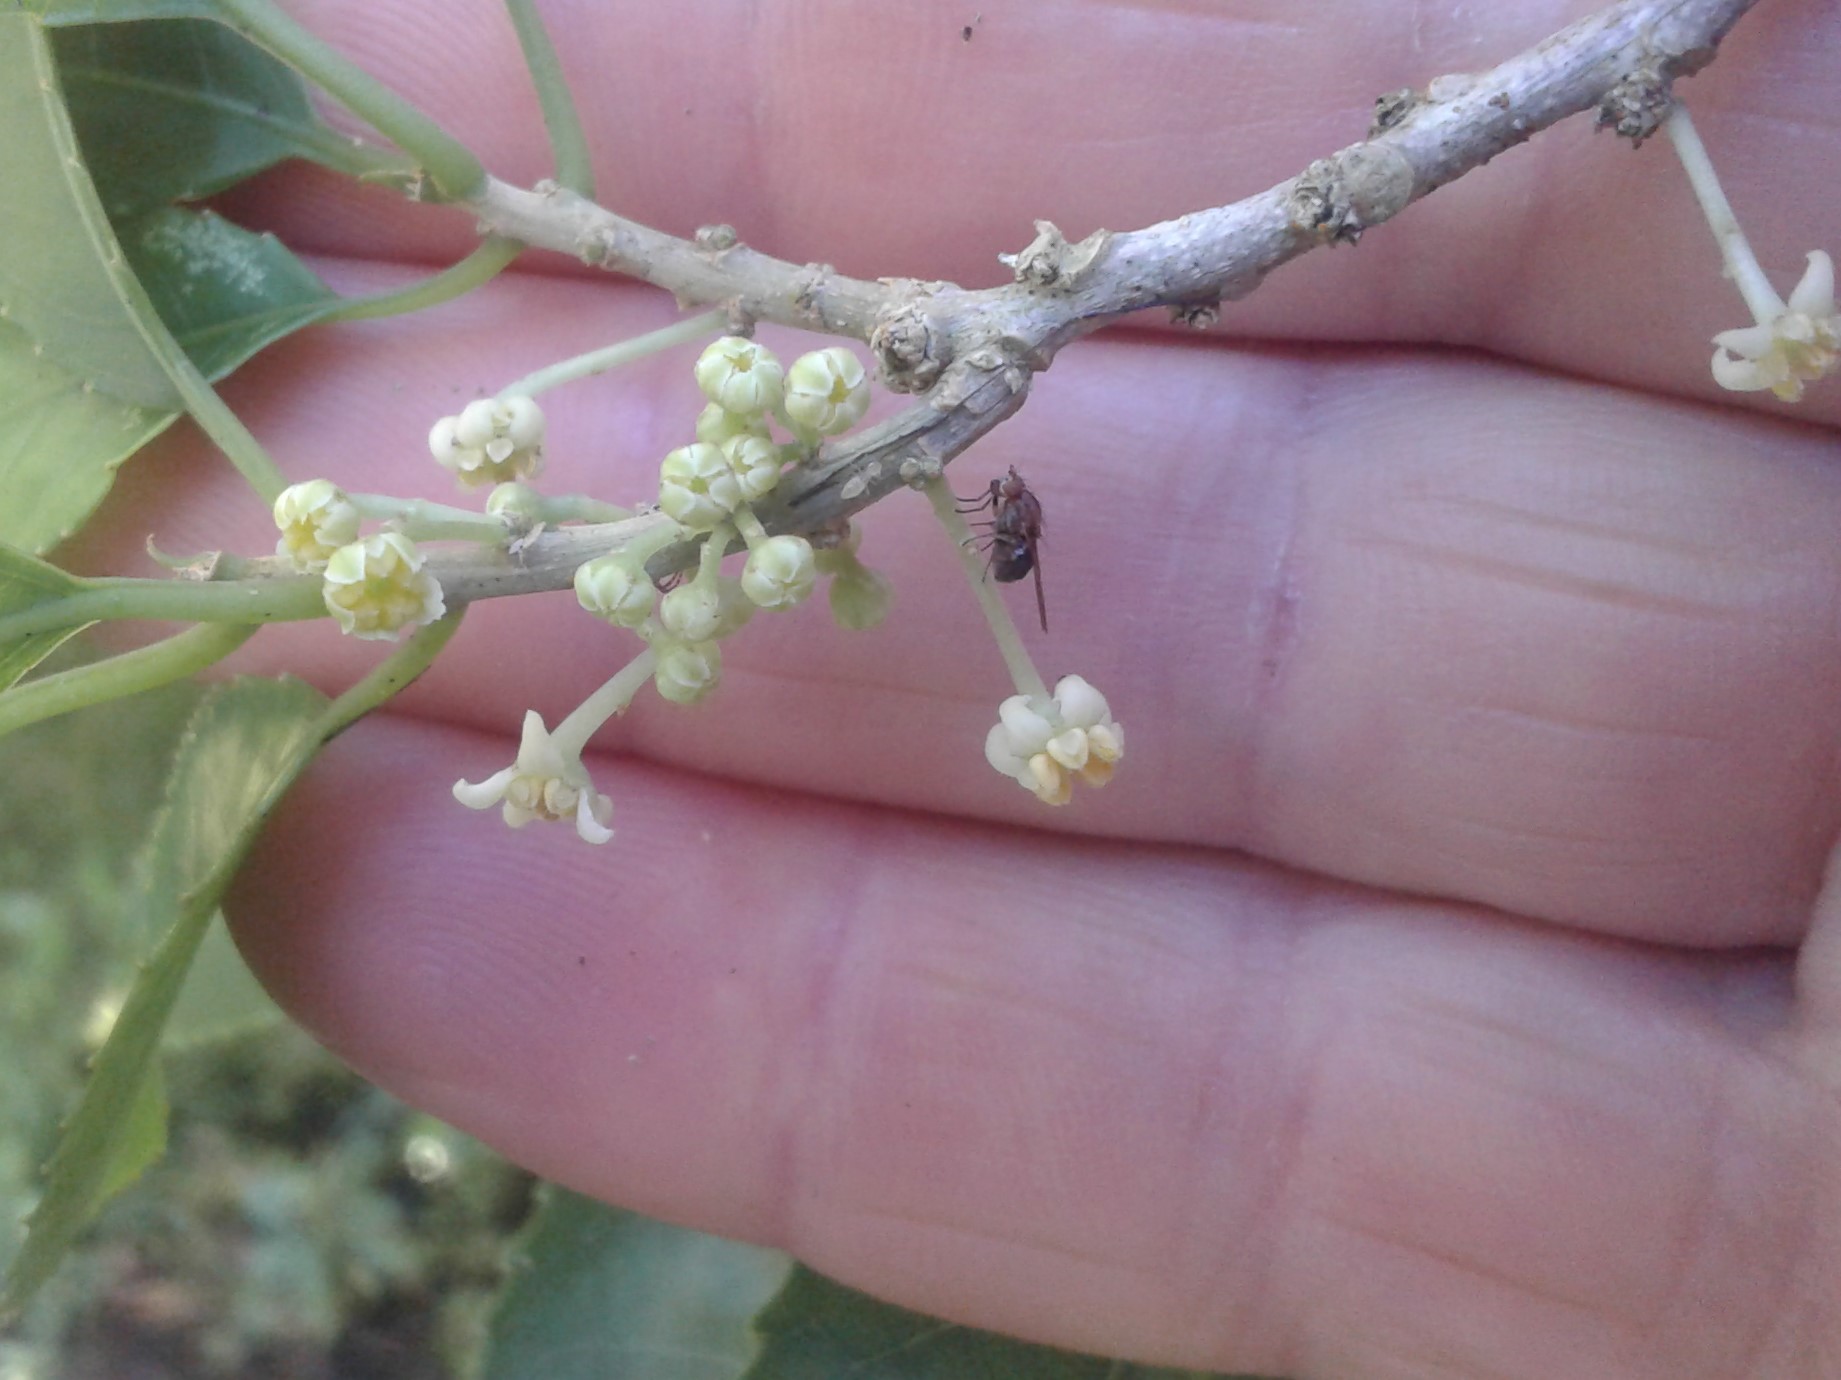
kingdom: Plantae
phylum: Tracheophyta
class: Magnoliopsida
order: Malpighiales
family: Violaceae
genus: Melicytus
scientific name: Melicytus ramiflorus
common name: Mahoe
